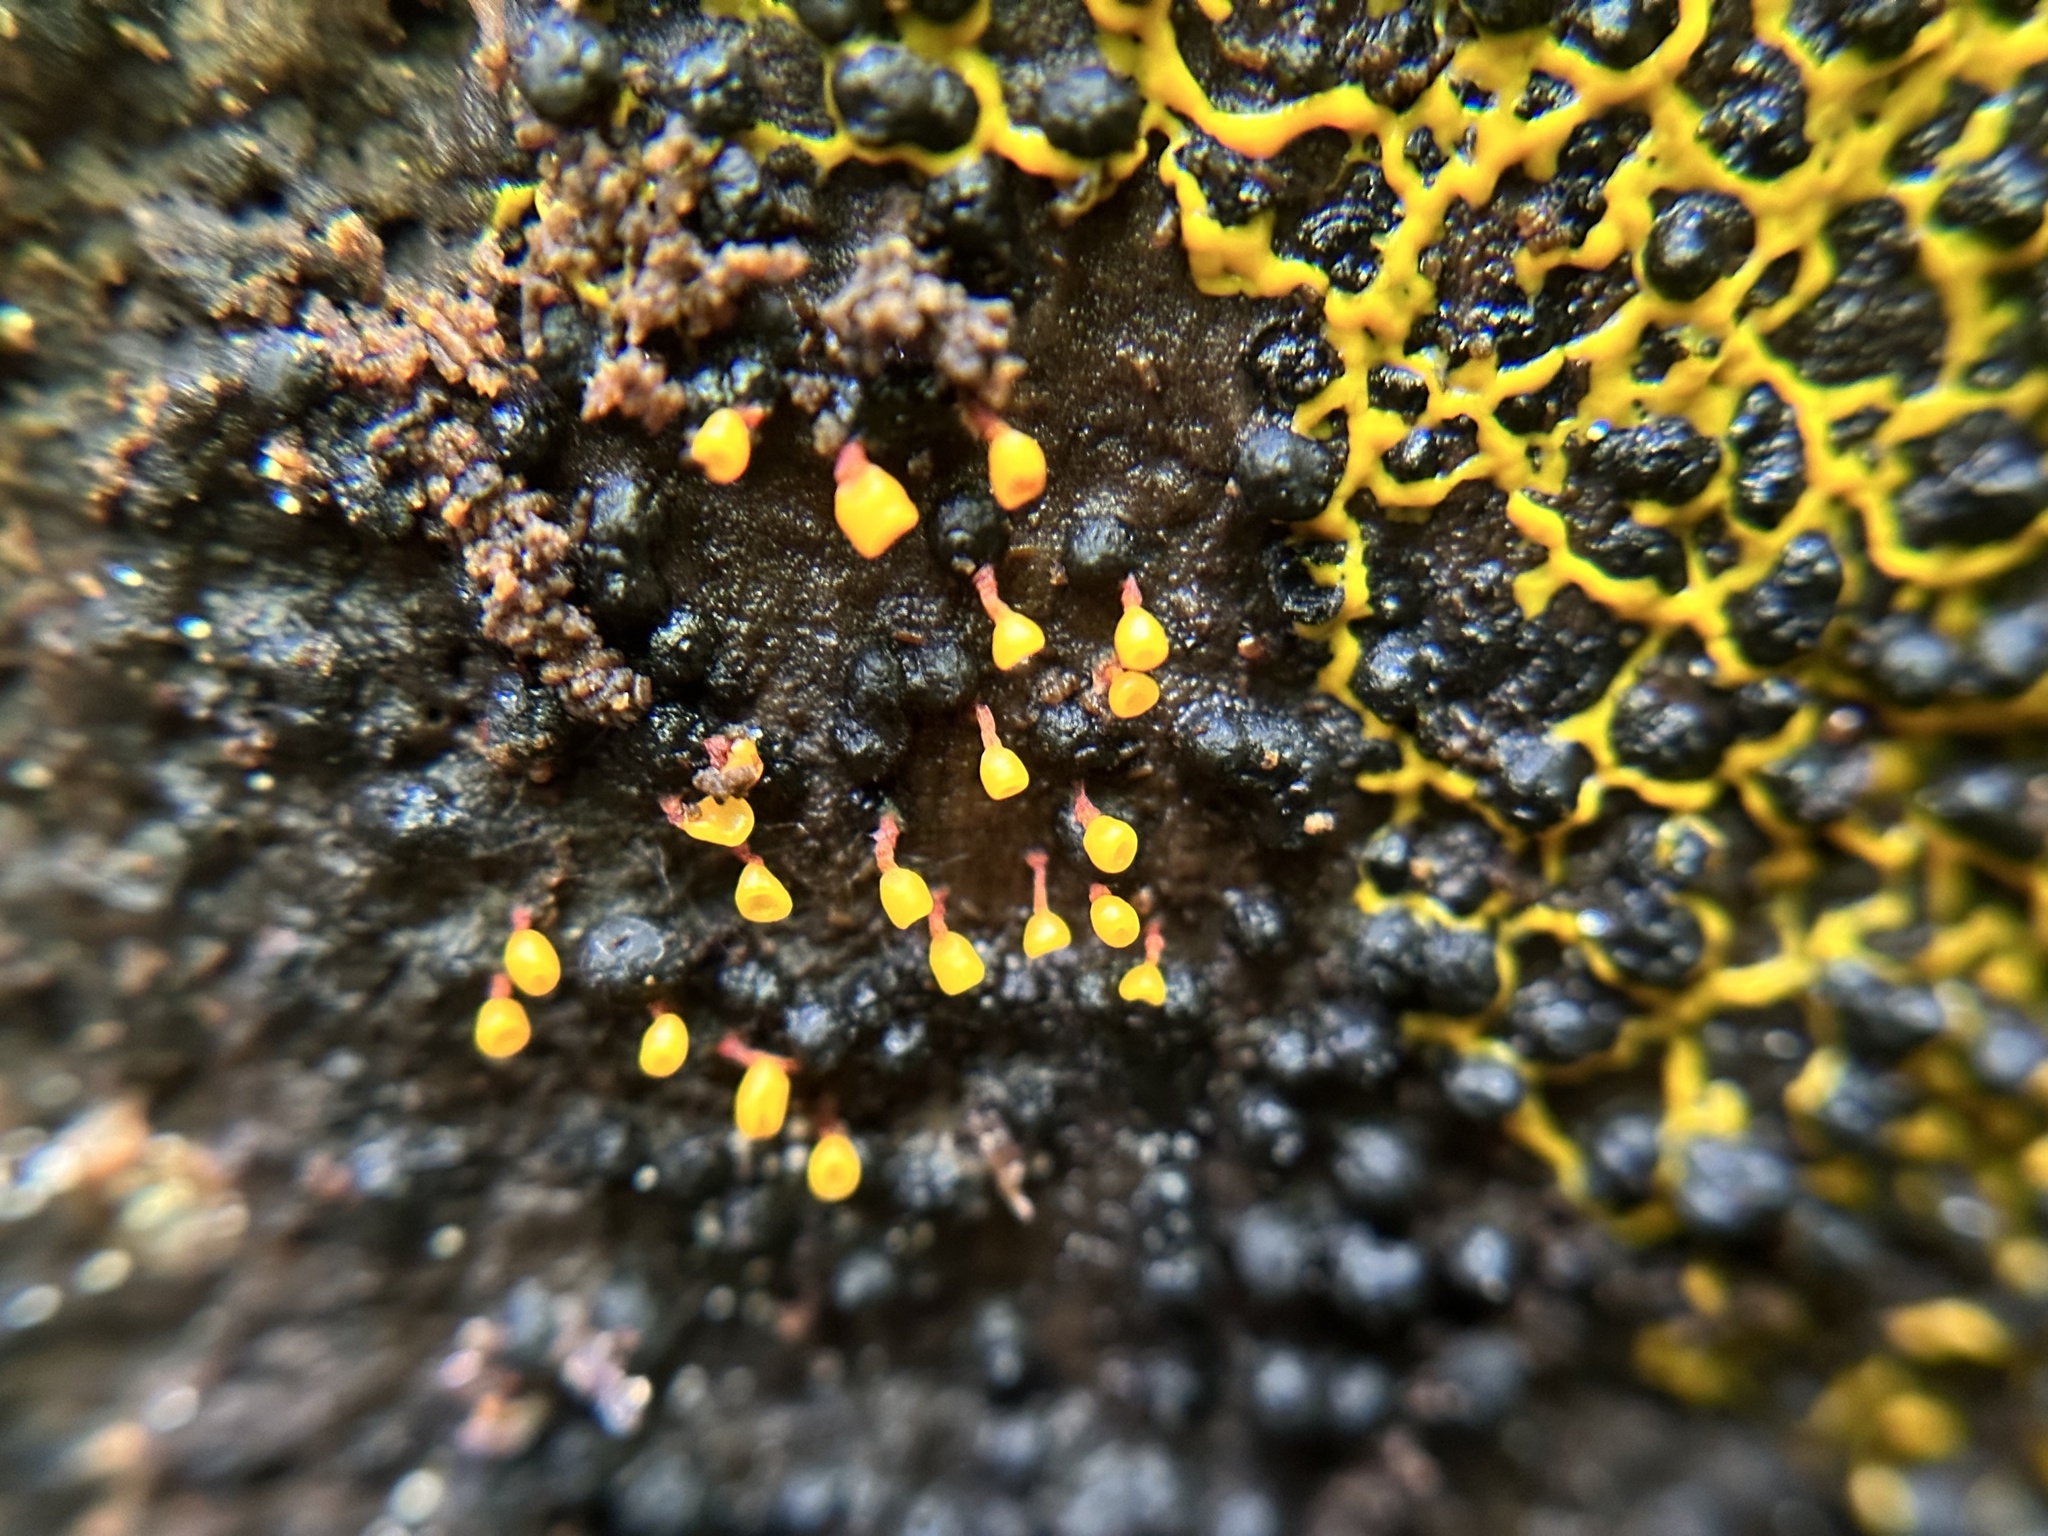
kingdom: Protozoa
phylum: Mycetozoa
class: Myxomycetes
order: Physarales
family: Physaraceae
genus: Physarella
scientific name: Physarella oblonga
